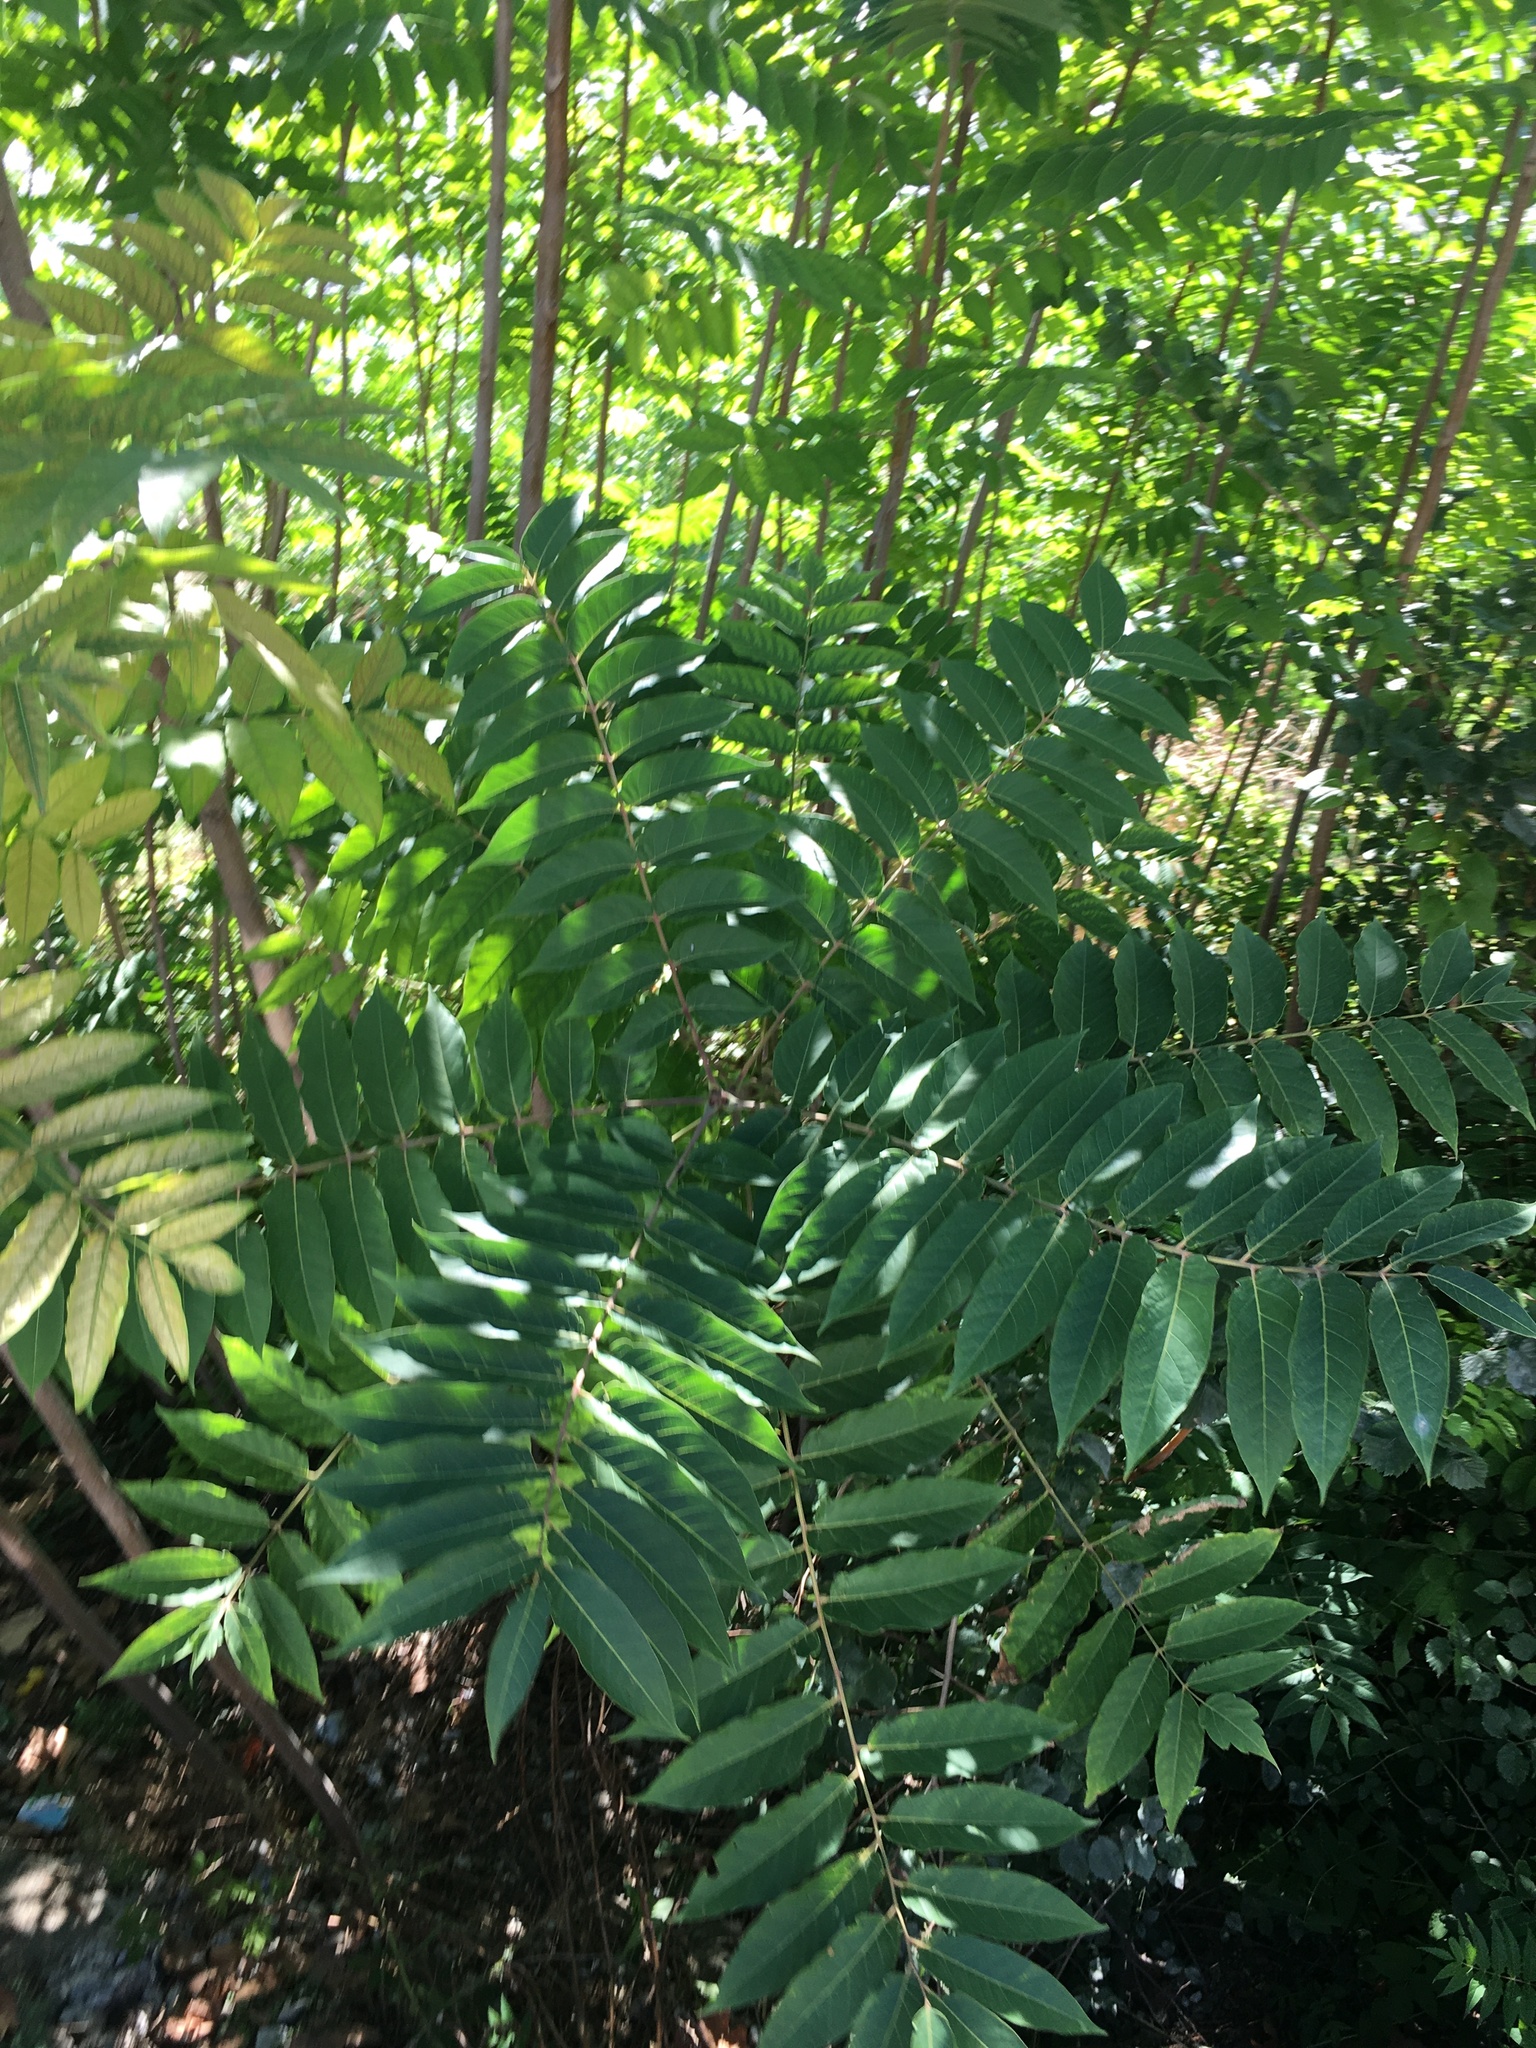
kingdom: Plantae
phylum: Tracheophyta
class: Magnoliopsida
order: Sapindales
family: Anacardiaceae
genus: Rhus
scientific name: Rhus typhina
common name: Staghorn sumac
